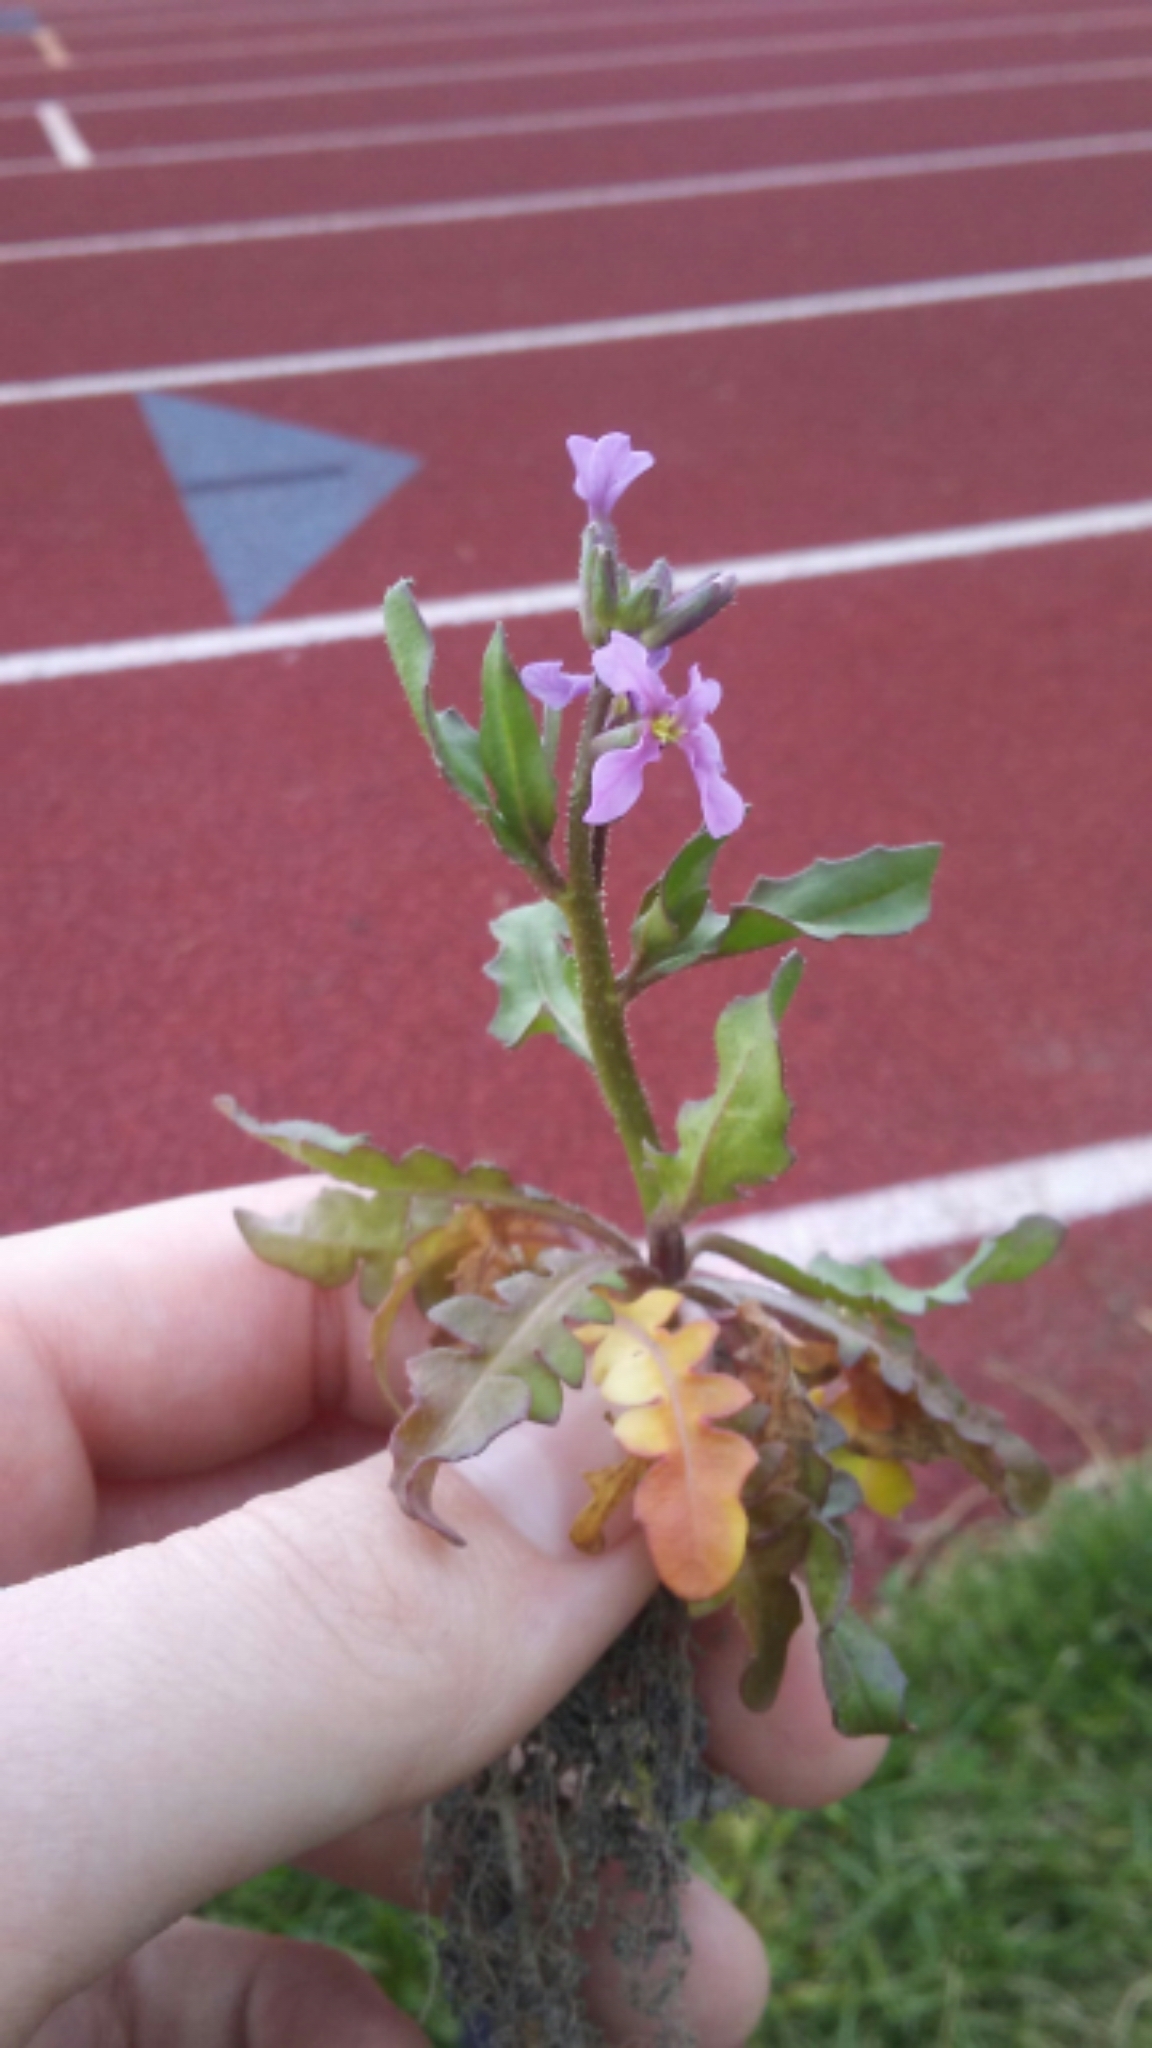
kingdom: Plantae
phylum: Tracheophyta
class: Magnoliopsida
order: Brassicales
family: Brassicaceae
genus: Chorispora
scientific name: Chorispora tenella
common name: Crossflower
